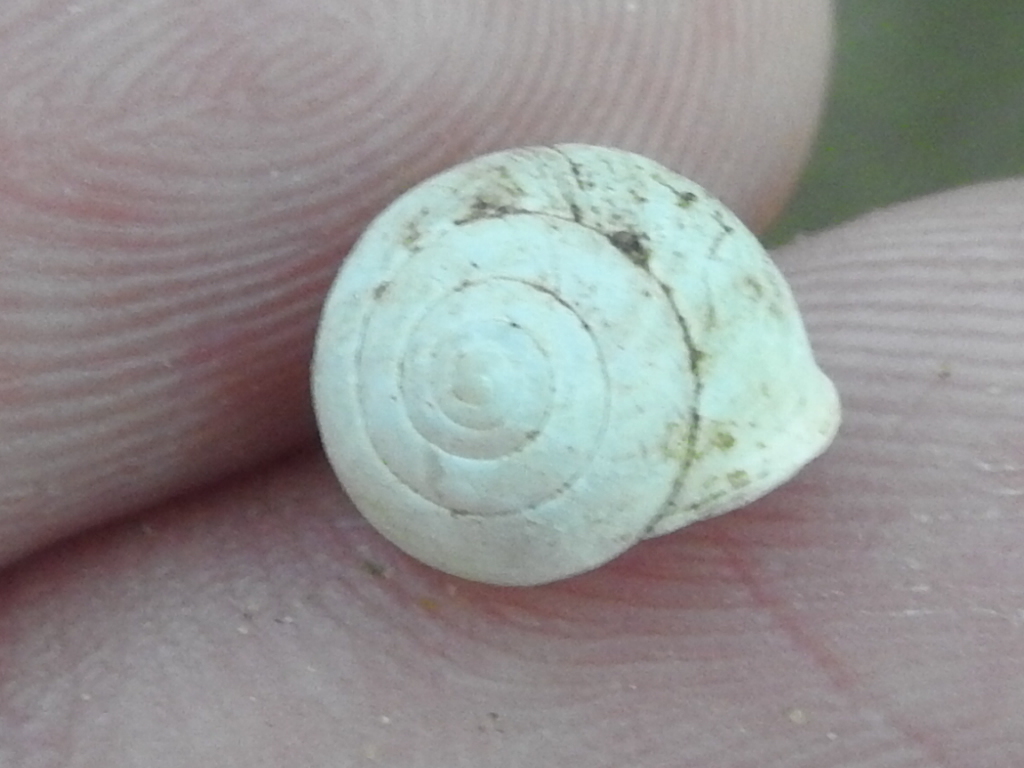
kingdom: Animalia
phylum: Mollusca
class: Gastropoda
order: Cycloneritida
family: Helicinidae
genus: Helicina
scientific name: Helicina orbiculata
